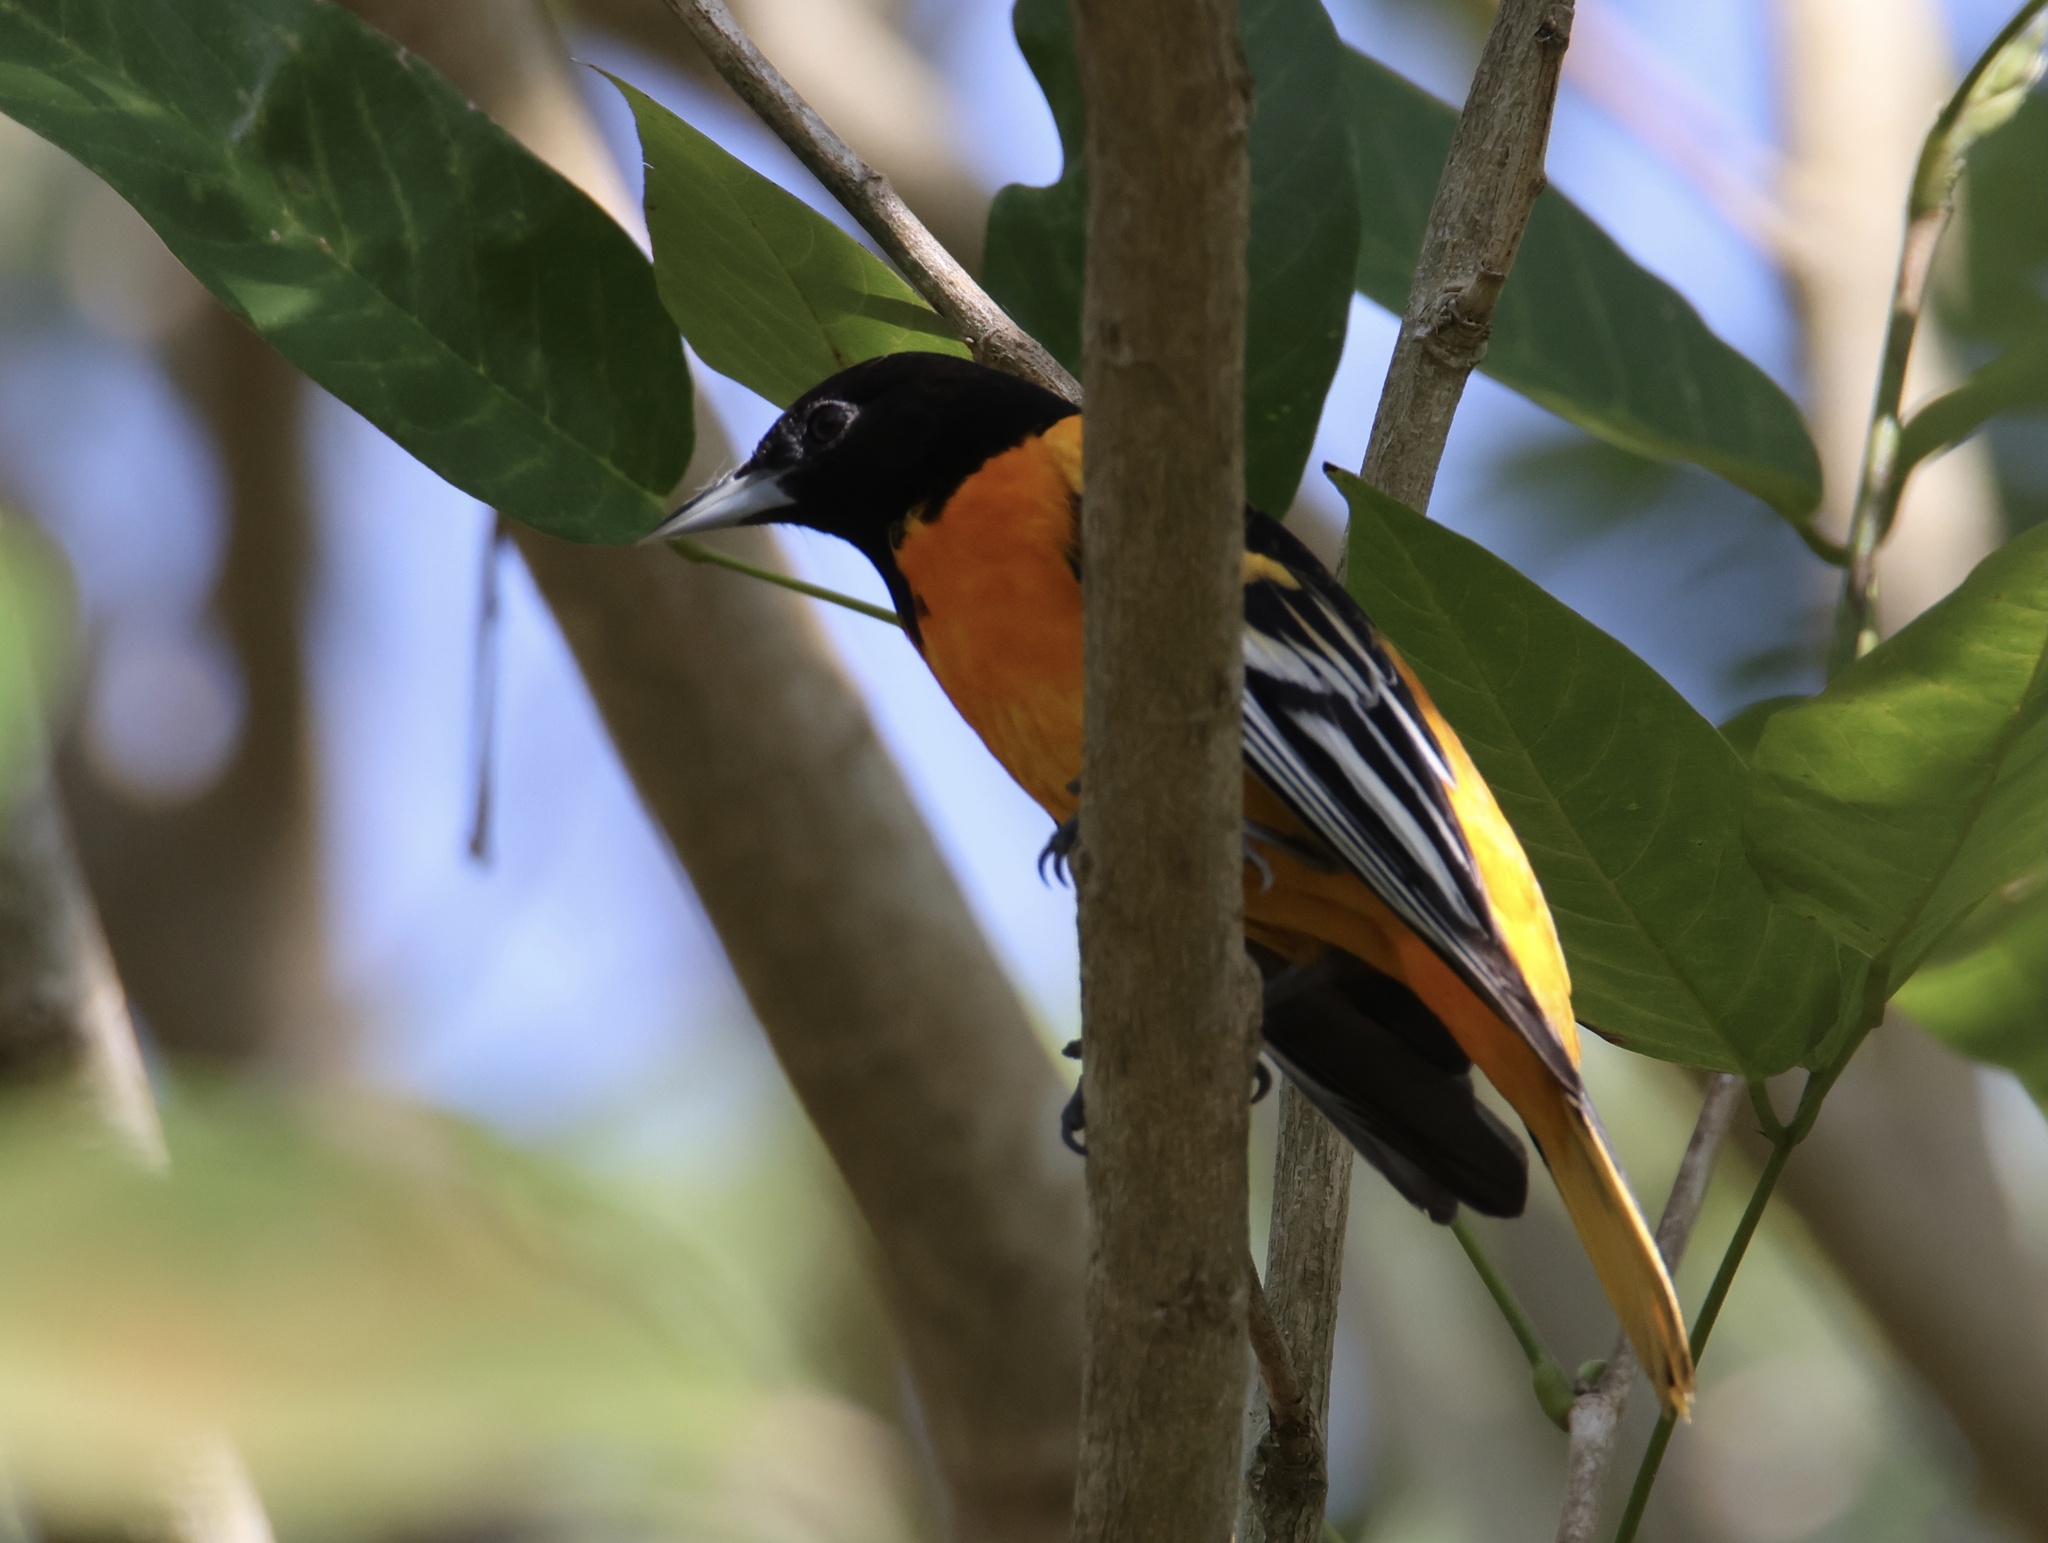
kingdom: Animalia
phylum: Chordata
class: Aves
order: Passeriformes
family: Icteridae
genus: Icterus
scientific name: Icterus galbula
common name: Baltimore oriole
